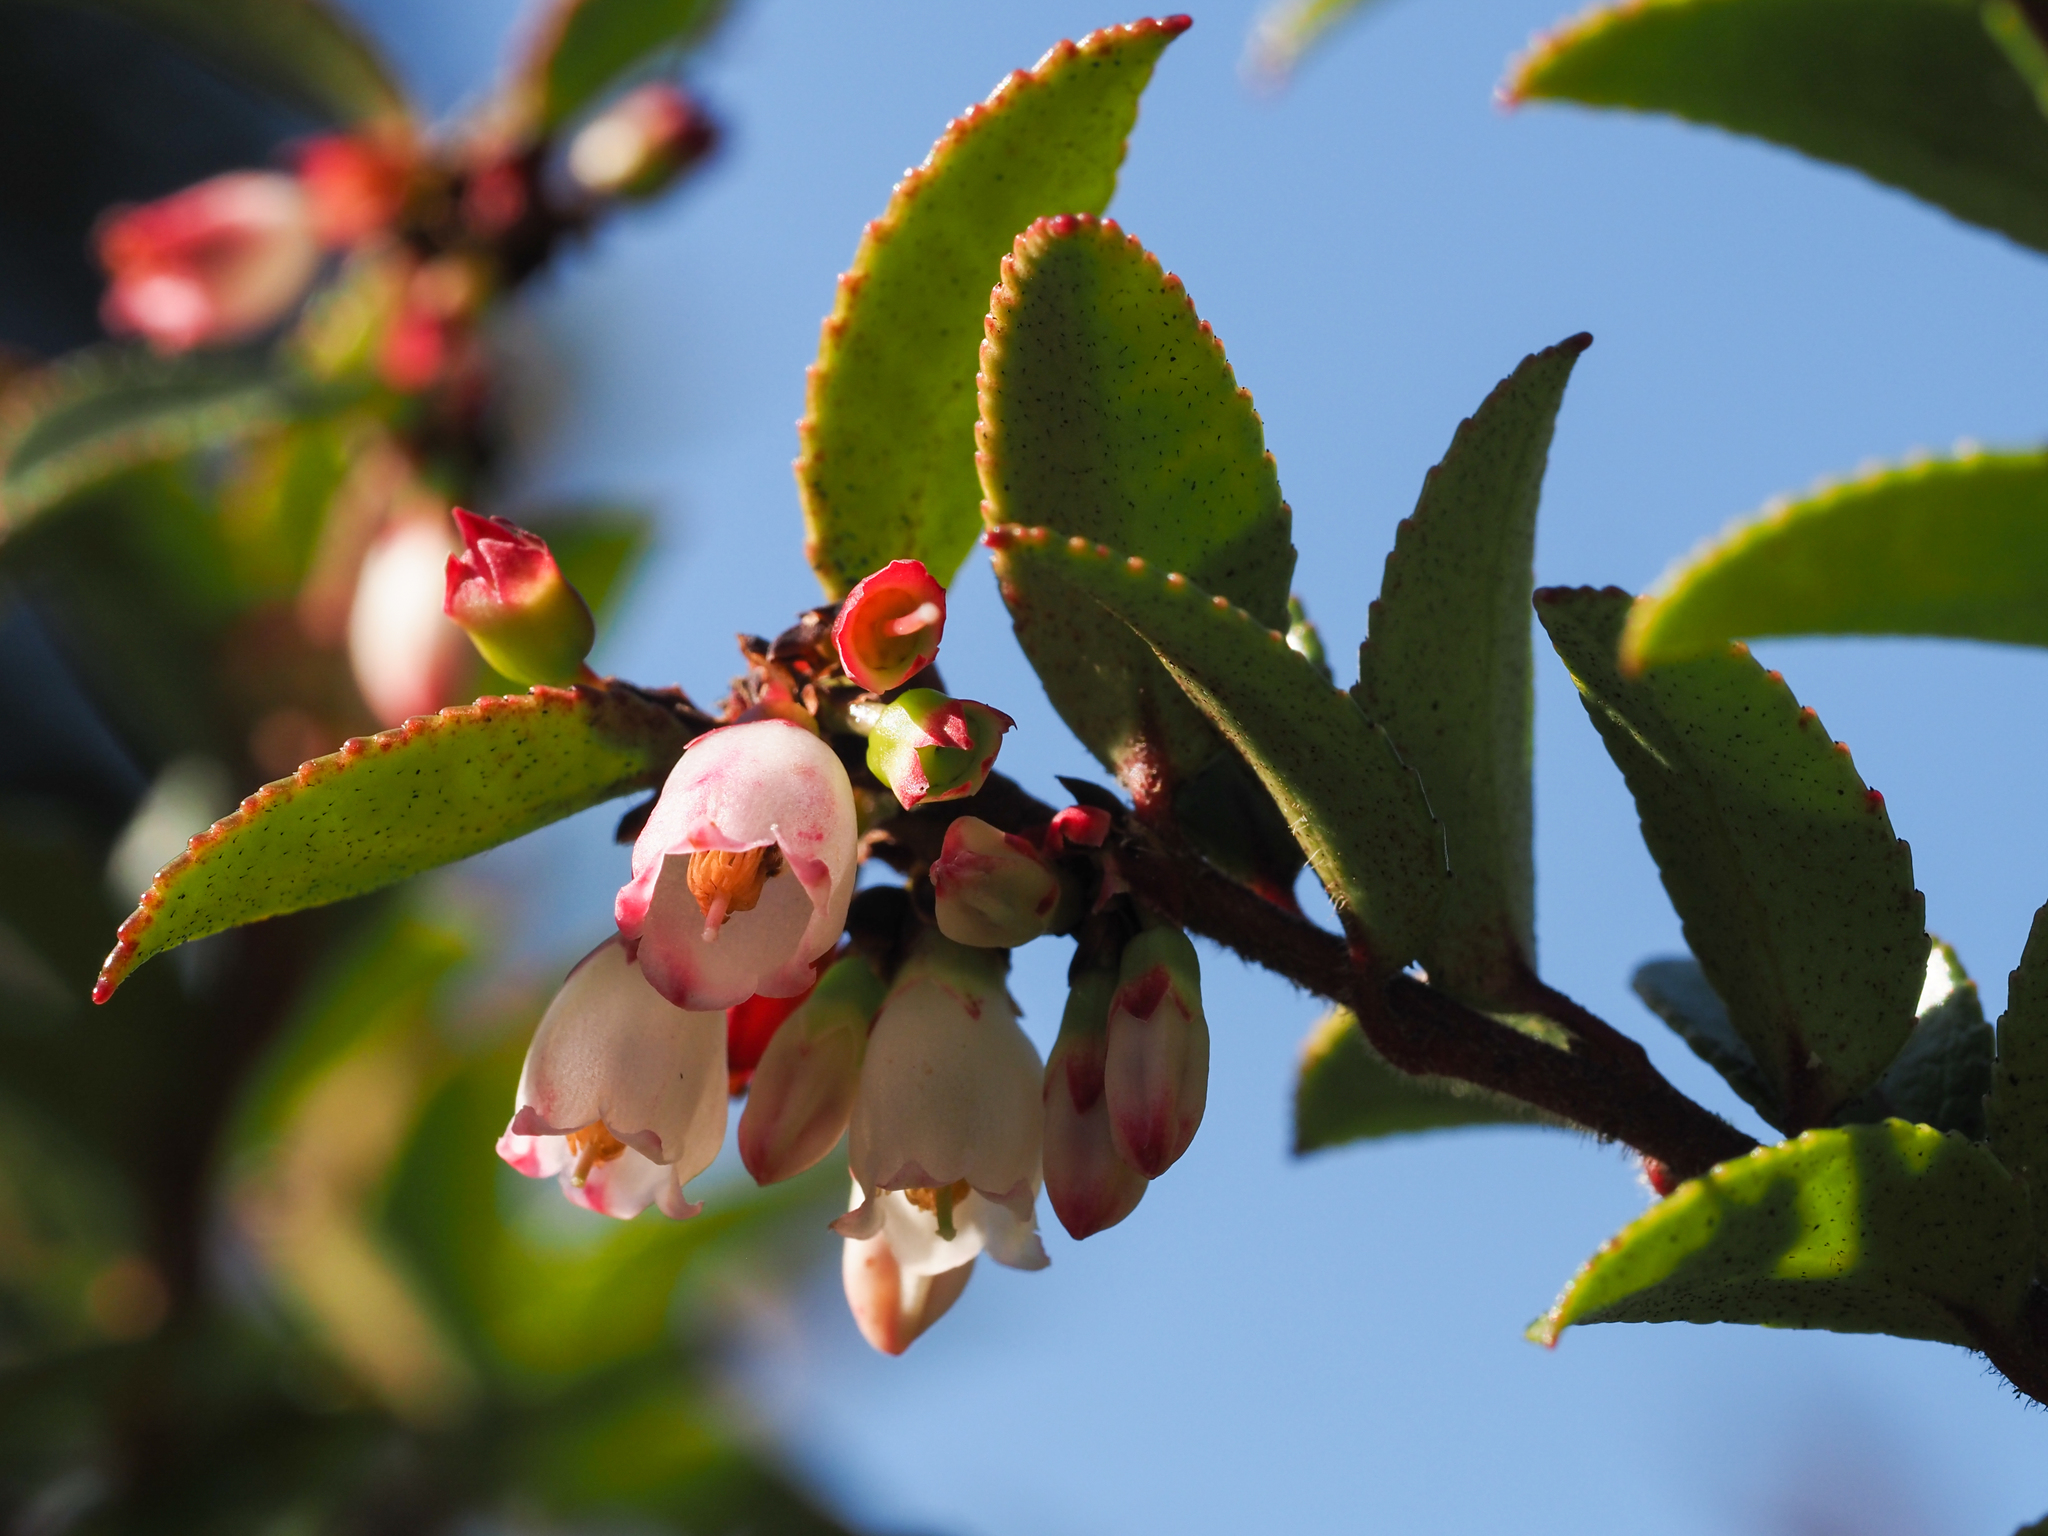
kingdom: Plantae
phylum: Tracheophyta
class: Magnoliopsida
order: Ericales
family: Ericaceae
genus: Vaccinium
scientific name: Vaccinium ovatum
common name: California-huckleberry
